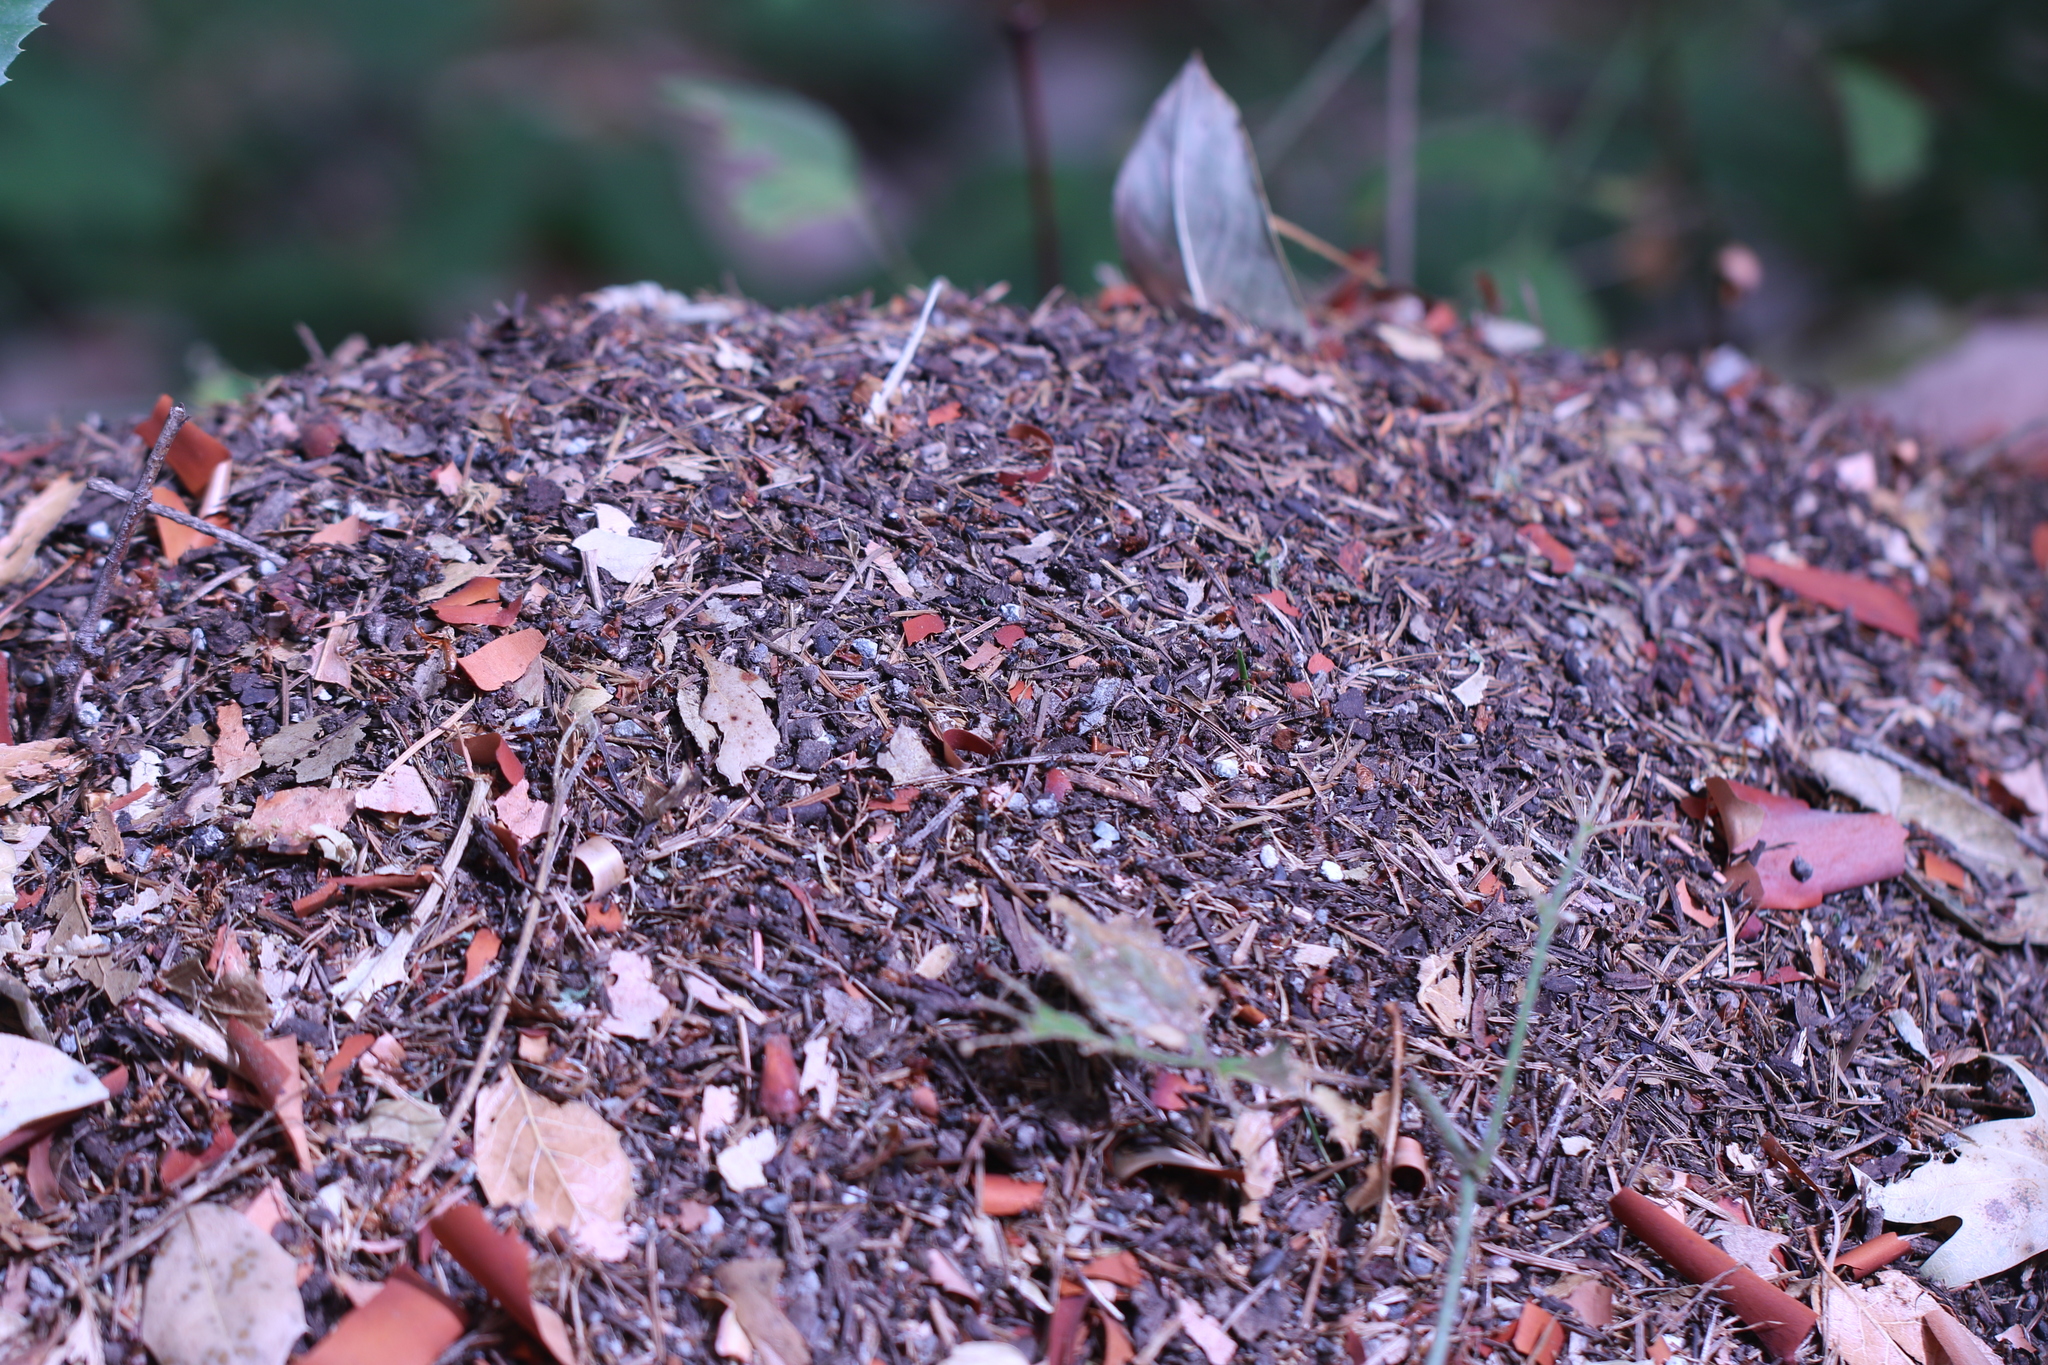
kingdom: Animalia
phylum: Arthropoda
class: Insecta
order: Hymenoptera
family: Formicidae
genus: Formica
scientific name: Formica integroides
